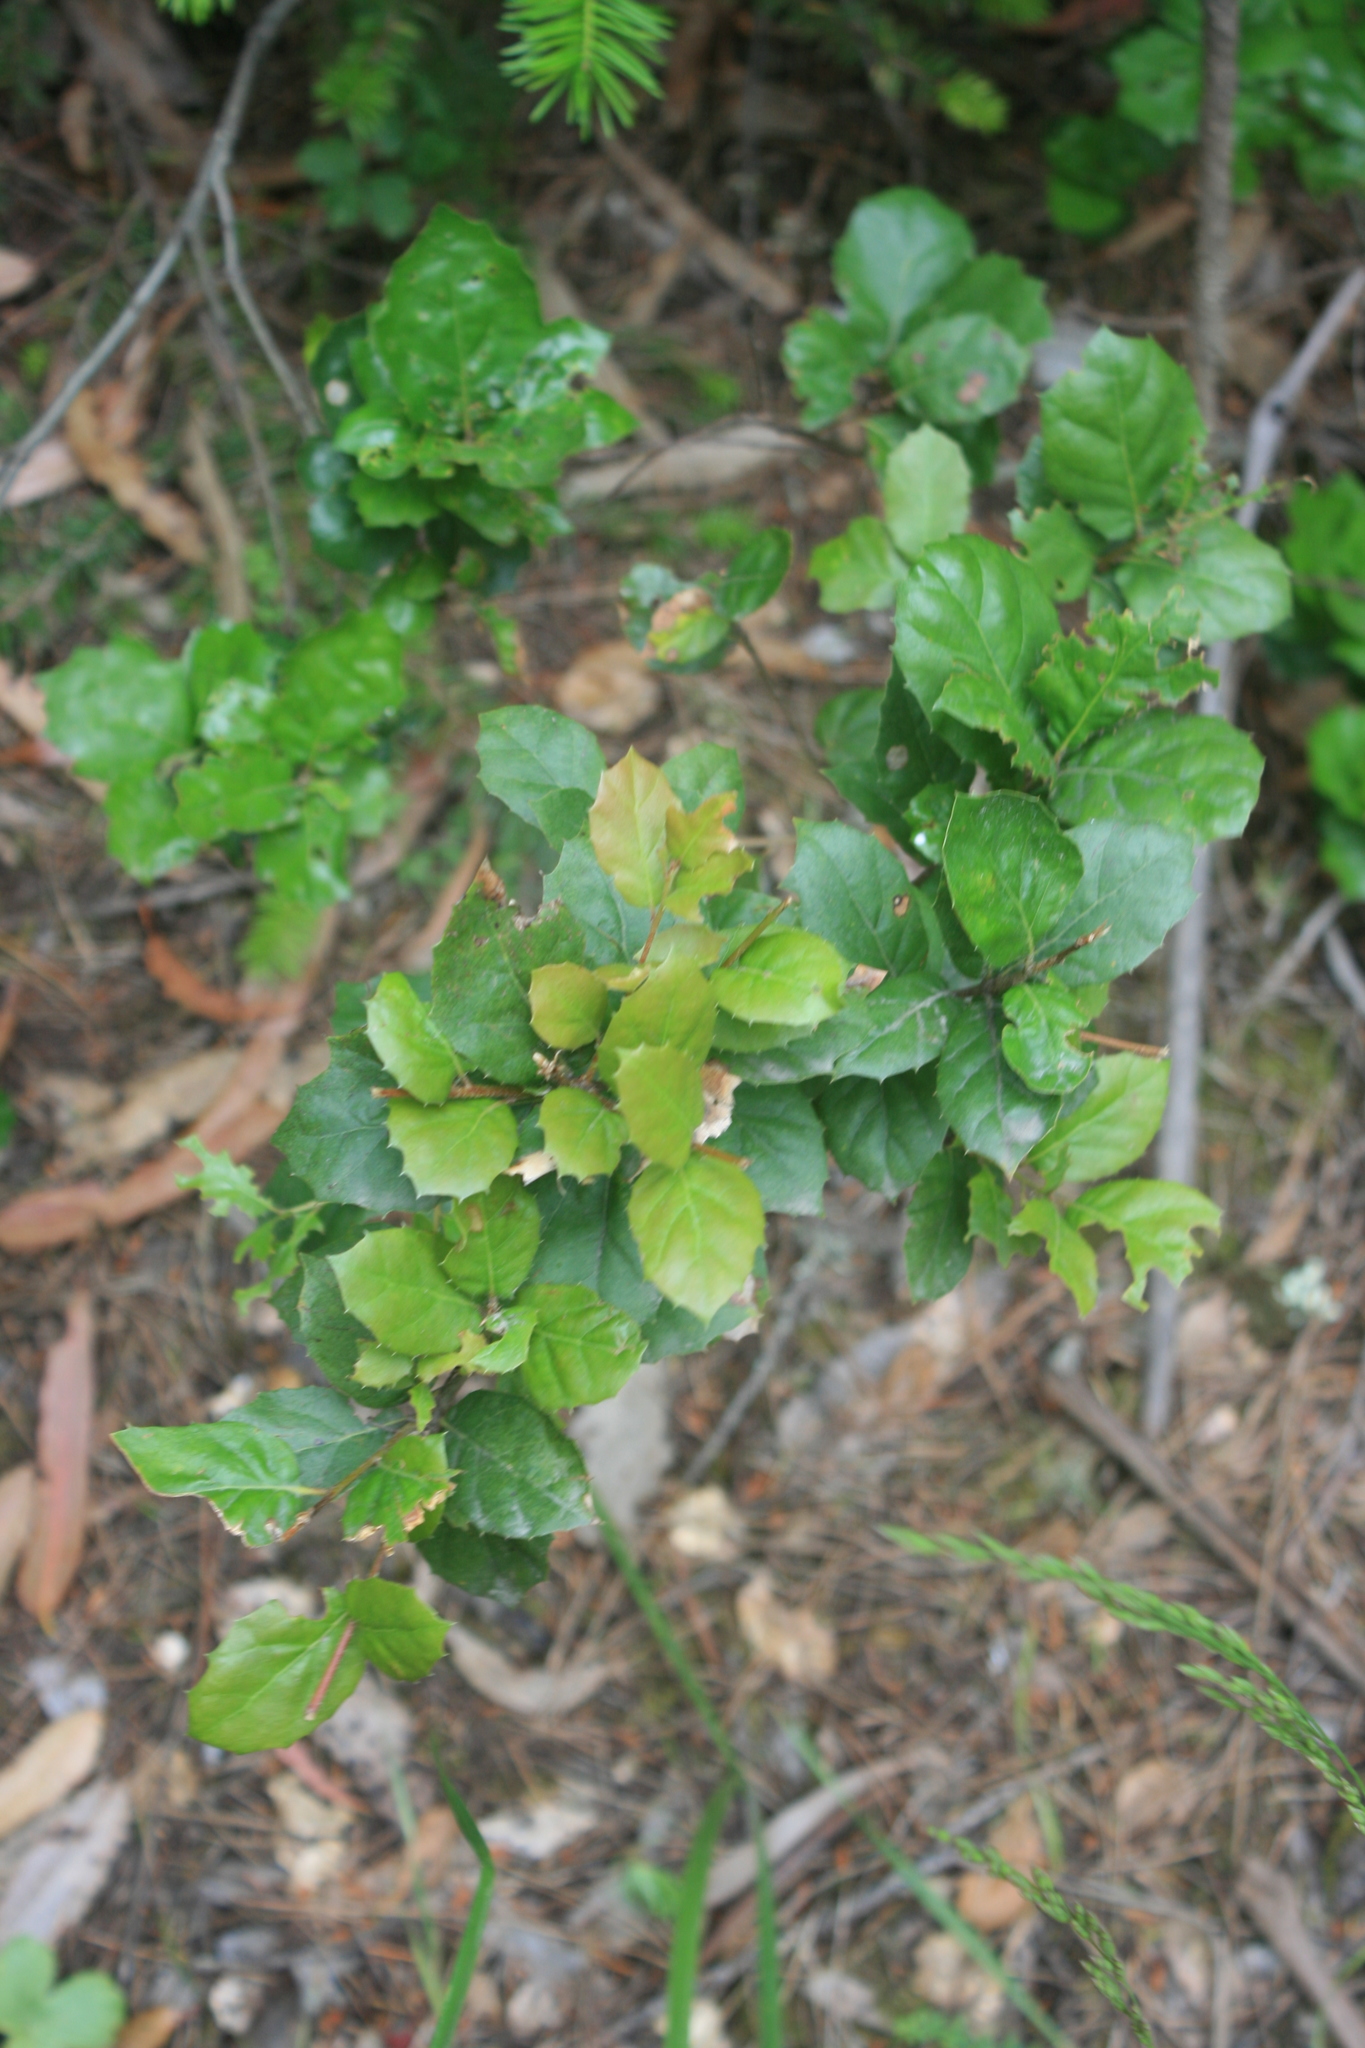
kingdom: Plantae
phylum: Tracheophyta
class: Magnoliopsida
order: Fagales
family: Fagaceae
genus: Quercus
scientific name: Quercus agrifolia
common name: California live oak
